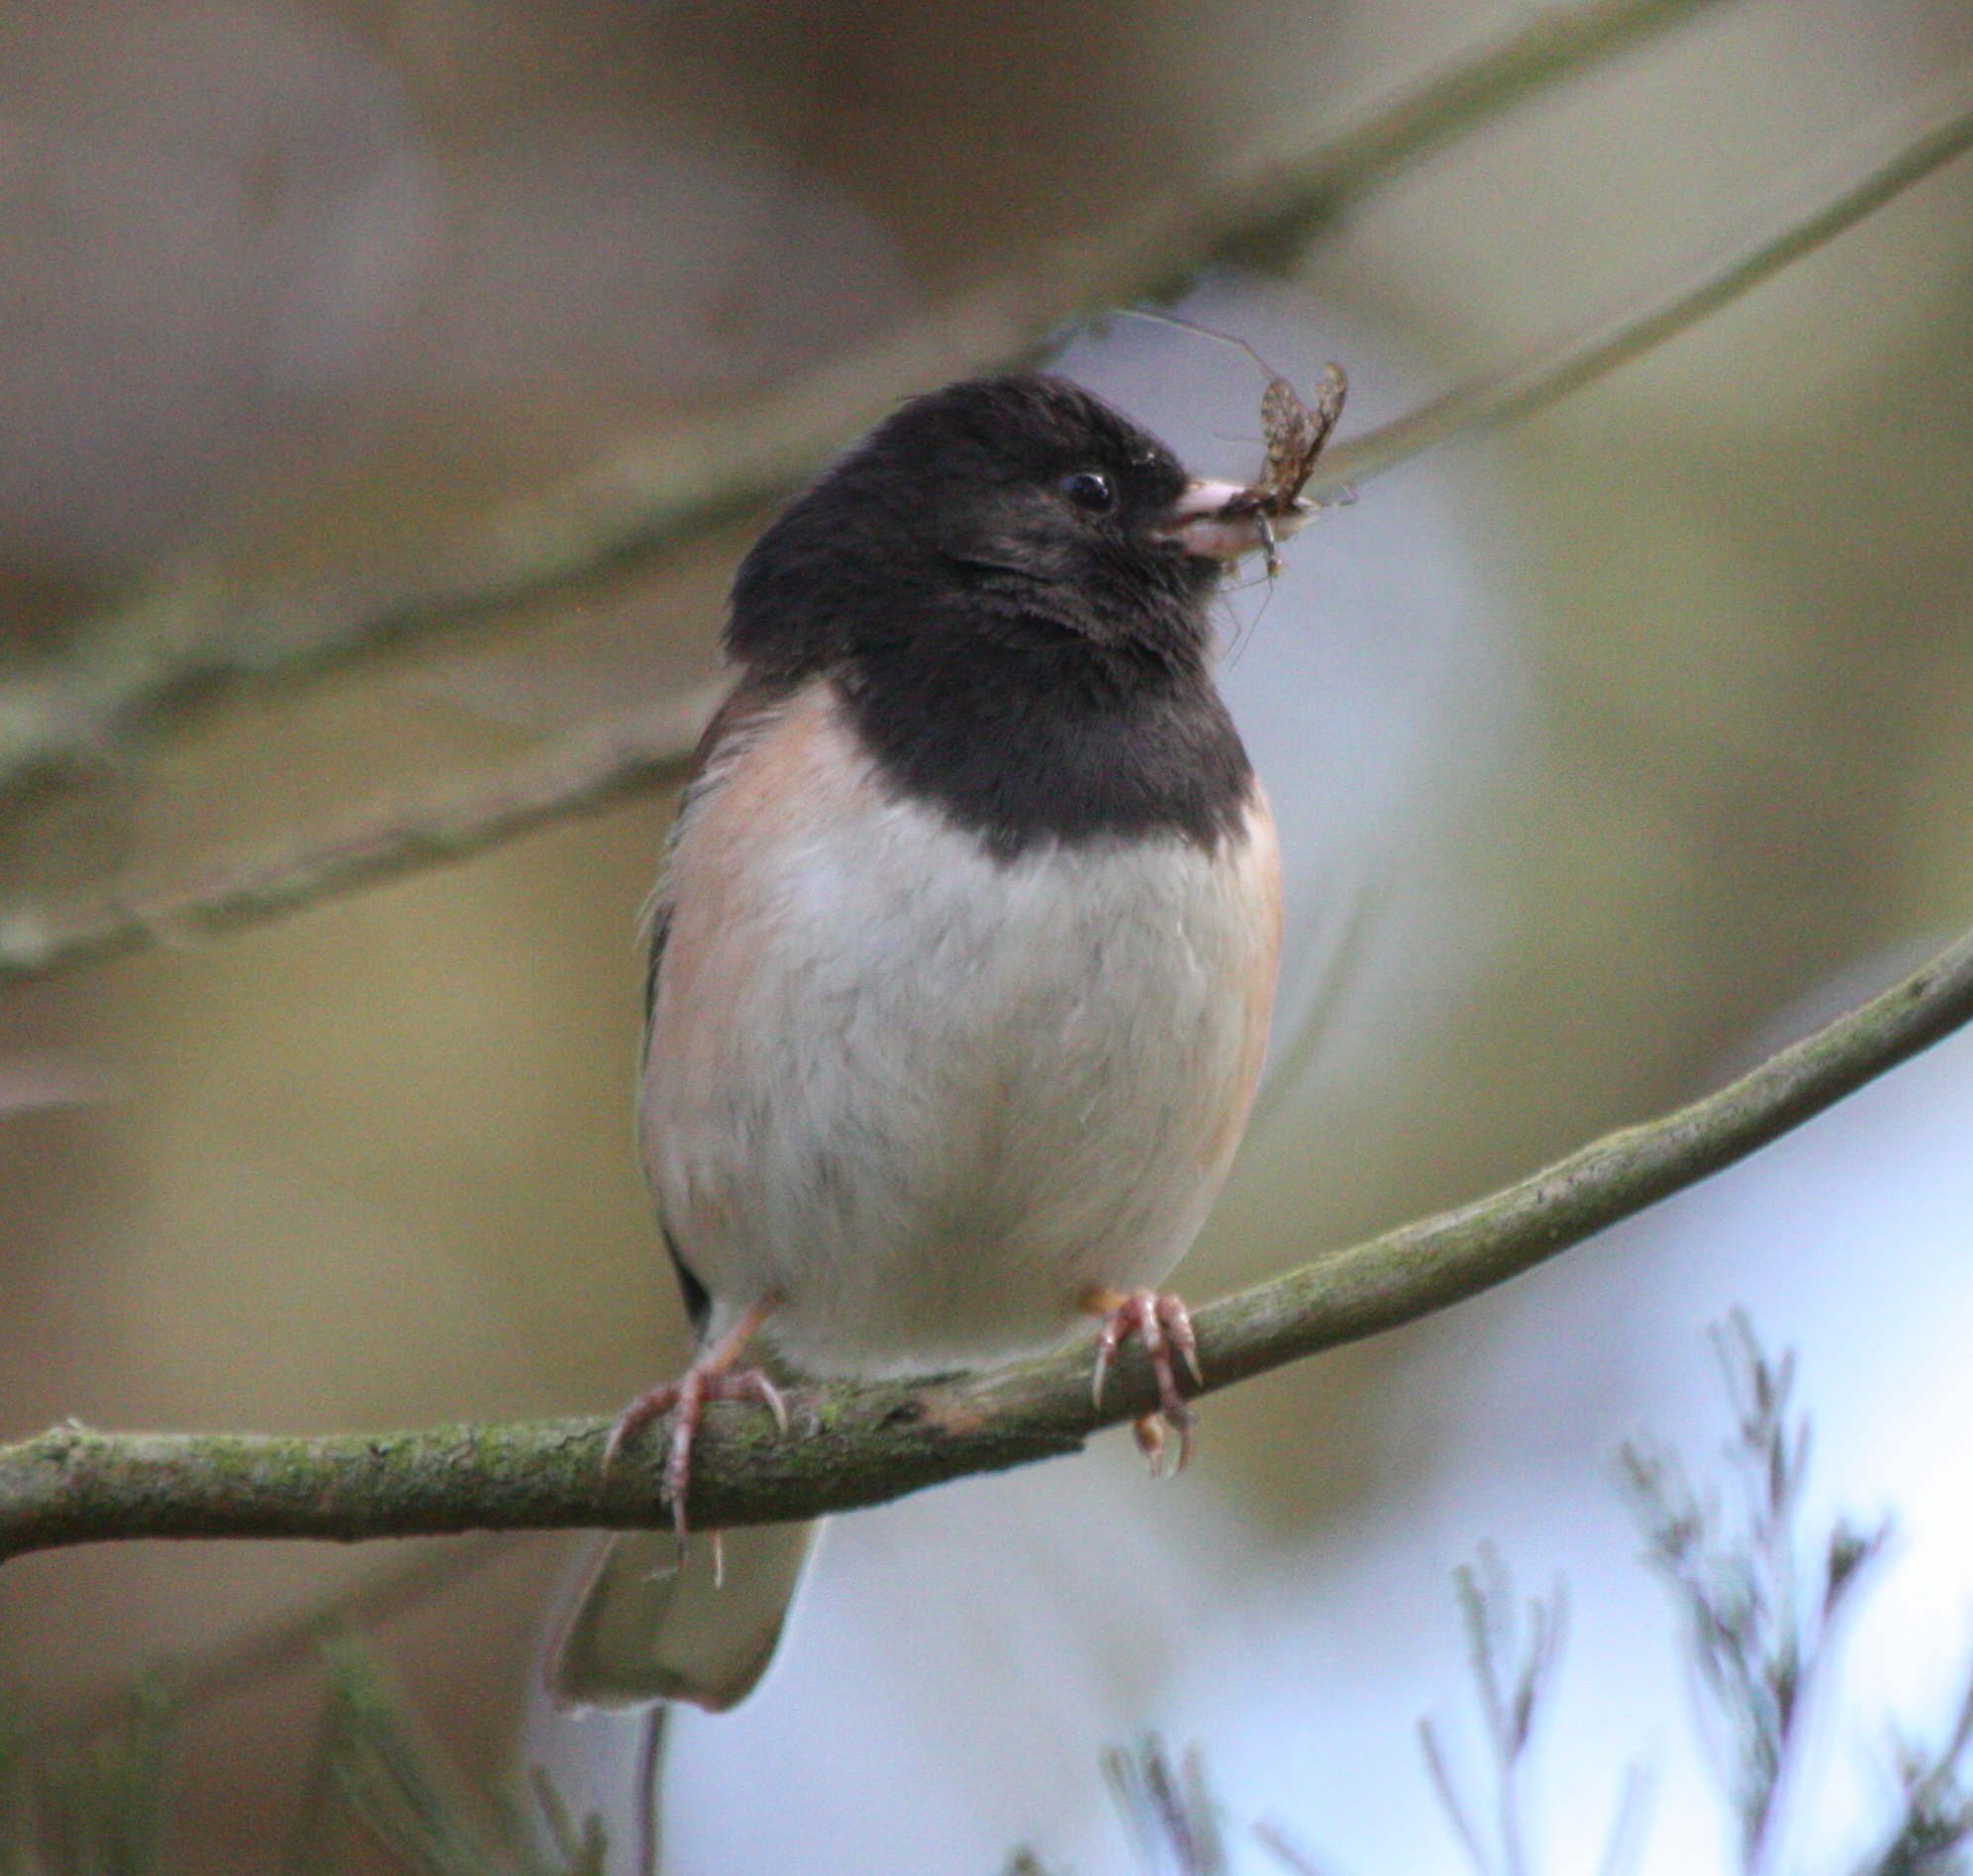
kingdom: Animalia
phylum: Chordata
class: Aves
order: Passeriformes
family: Passerellidae
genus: Junco
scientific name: Junco hyemalis
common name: Dark-eyed junco
